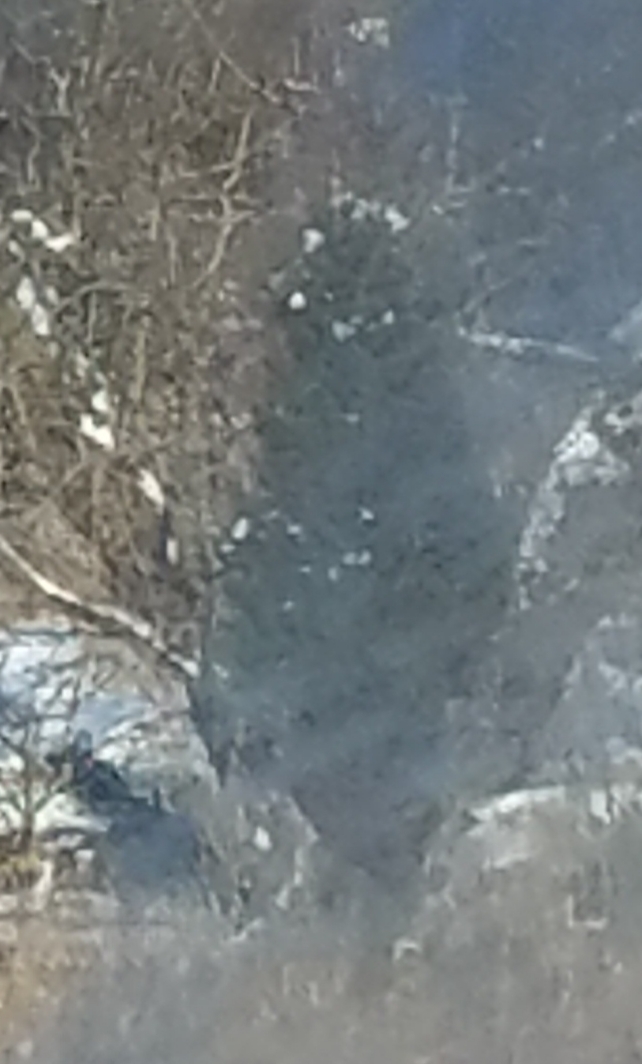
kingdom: Plantae
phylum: Tracheophyta
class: Pinopsida
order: Pinales
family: Cupressaceae
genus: Juniperus
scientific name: Juniperus virginiana
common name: Red juniper
